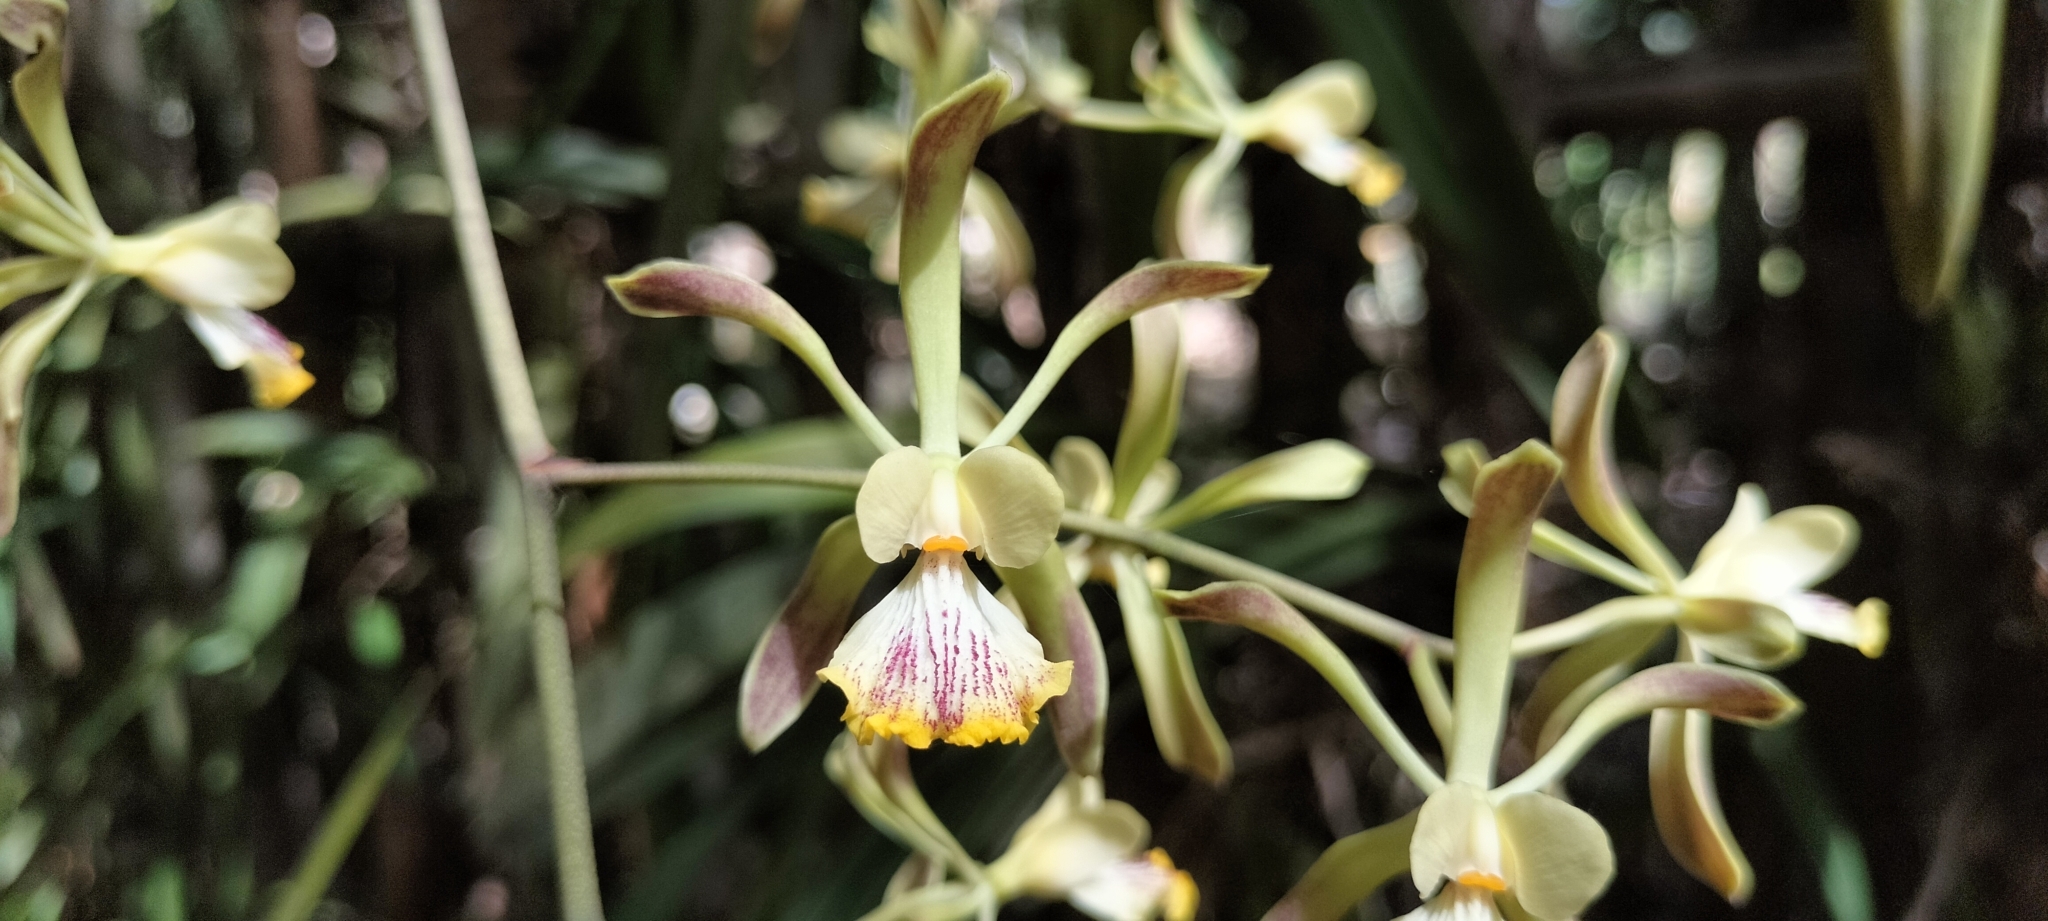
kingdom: Plantae
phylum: Tracheophyta
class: Liliopsida
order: Asparagales
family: Orchidaceae
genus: Encyclia
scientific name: Encyclia alata
